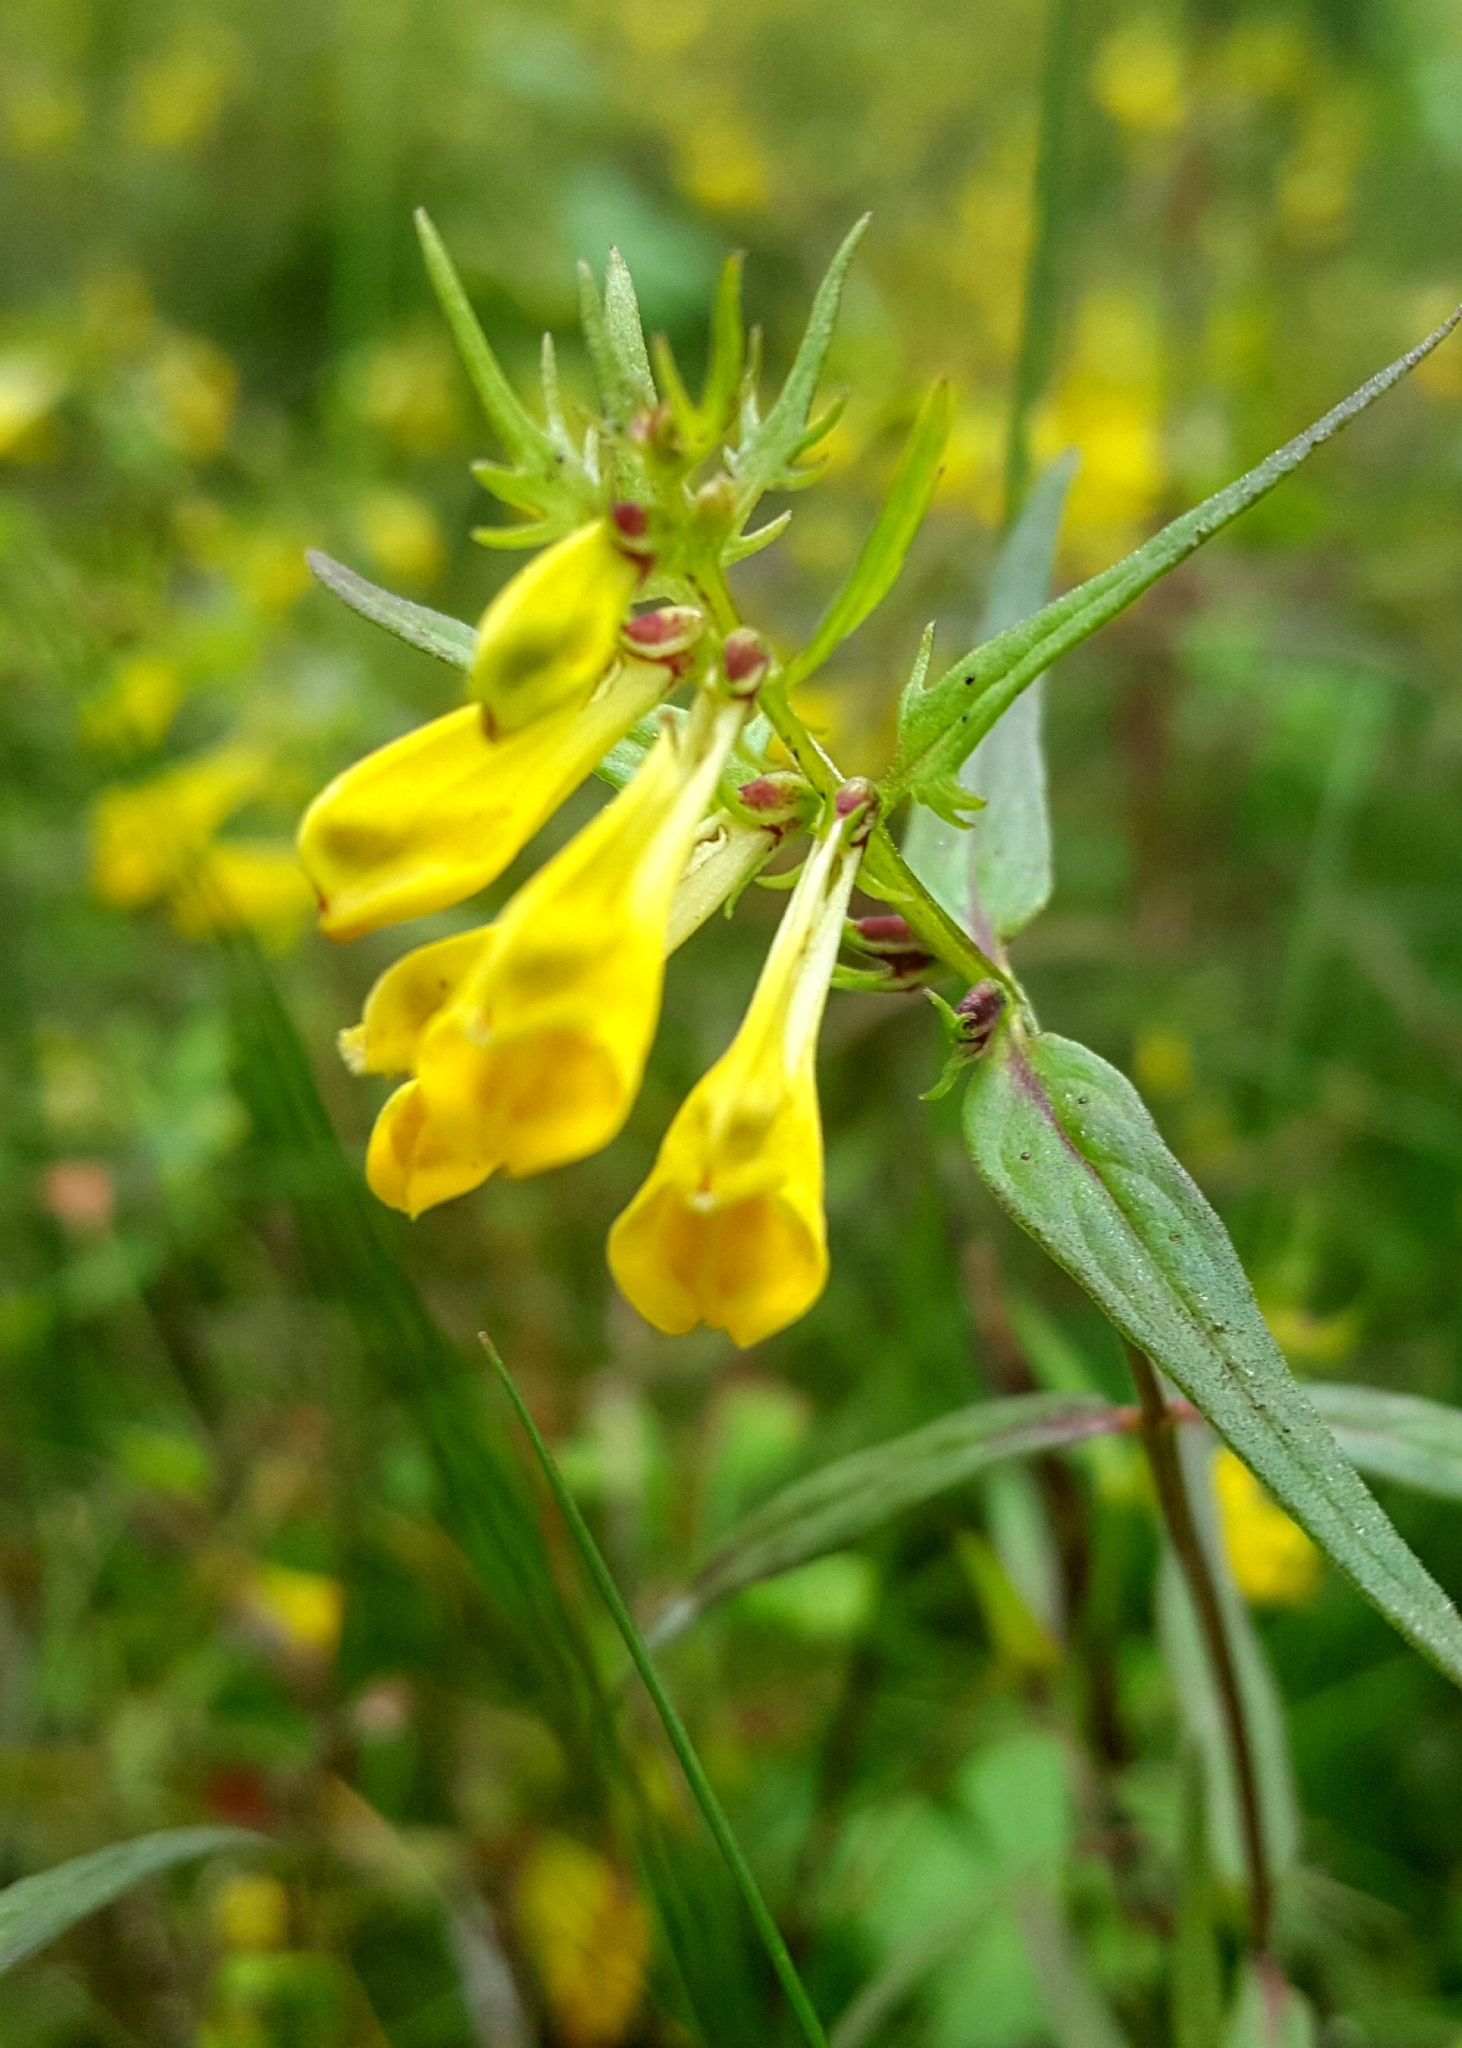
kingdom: Plantae
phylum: Tracheophyta
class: Magnoliopsida
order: Lamiales
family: Orobanchaceae
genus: Melampyrum
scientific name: Melampyrum pratense
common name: Common cow-wheat
